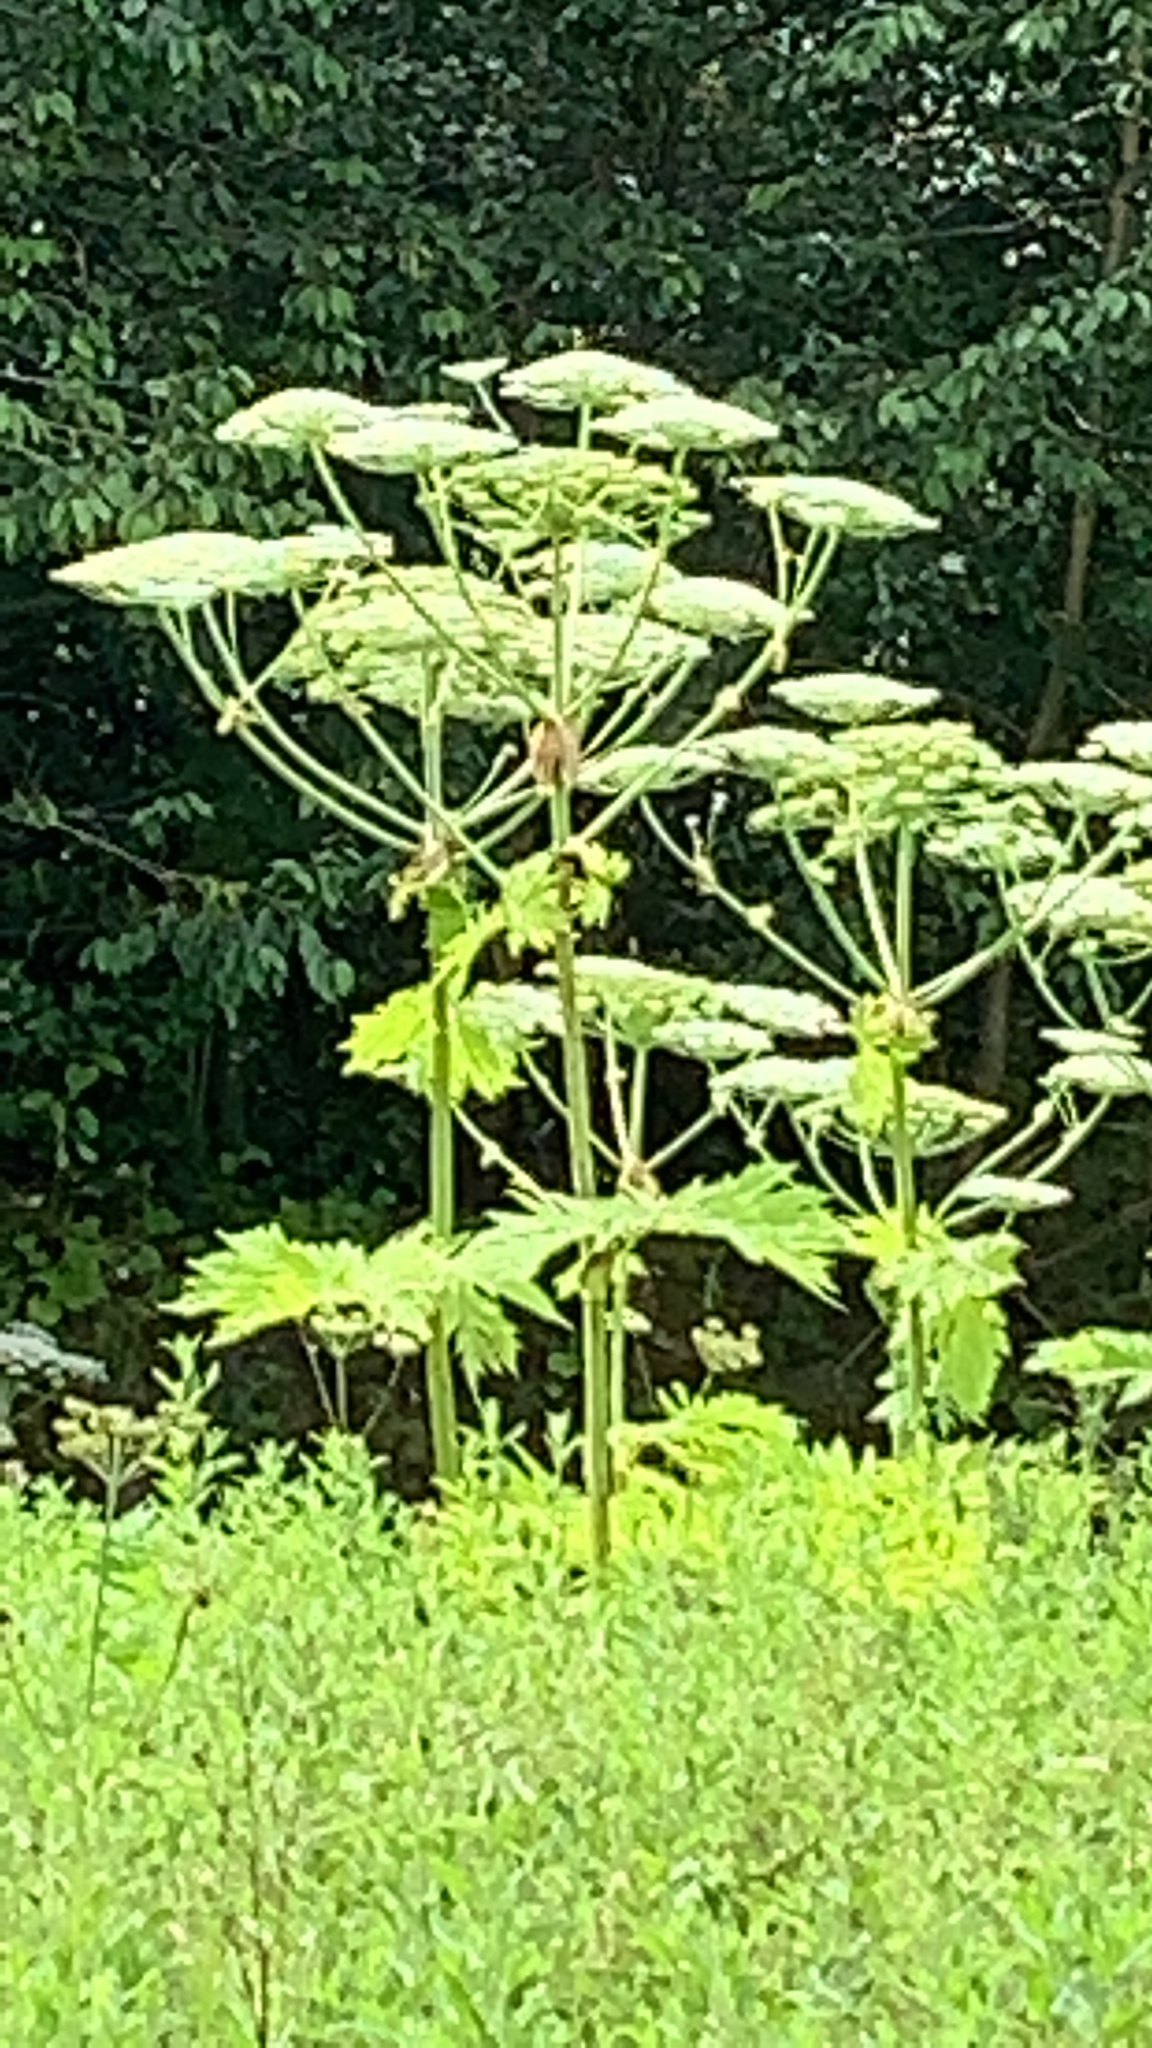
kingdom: Plantae
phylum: Tracheophyta
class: Magnoliopsida
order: Apiales
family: Apiaceae
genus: Heracleum
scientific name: Heracleum mantegazzianum
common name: Giant hogweed
